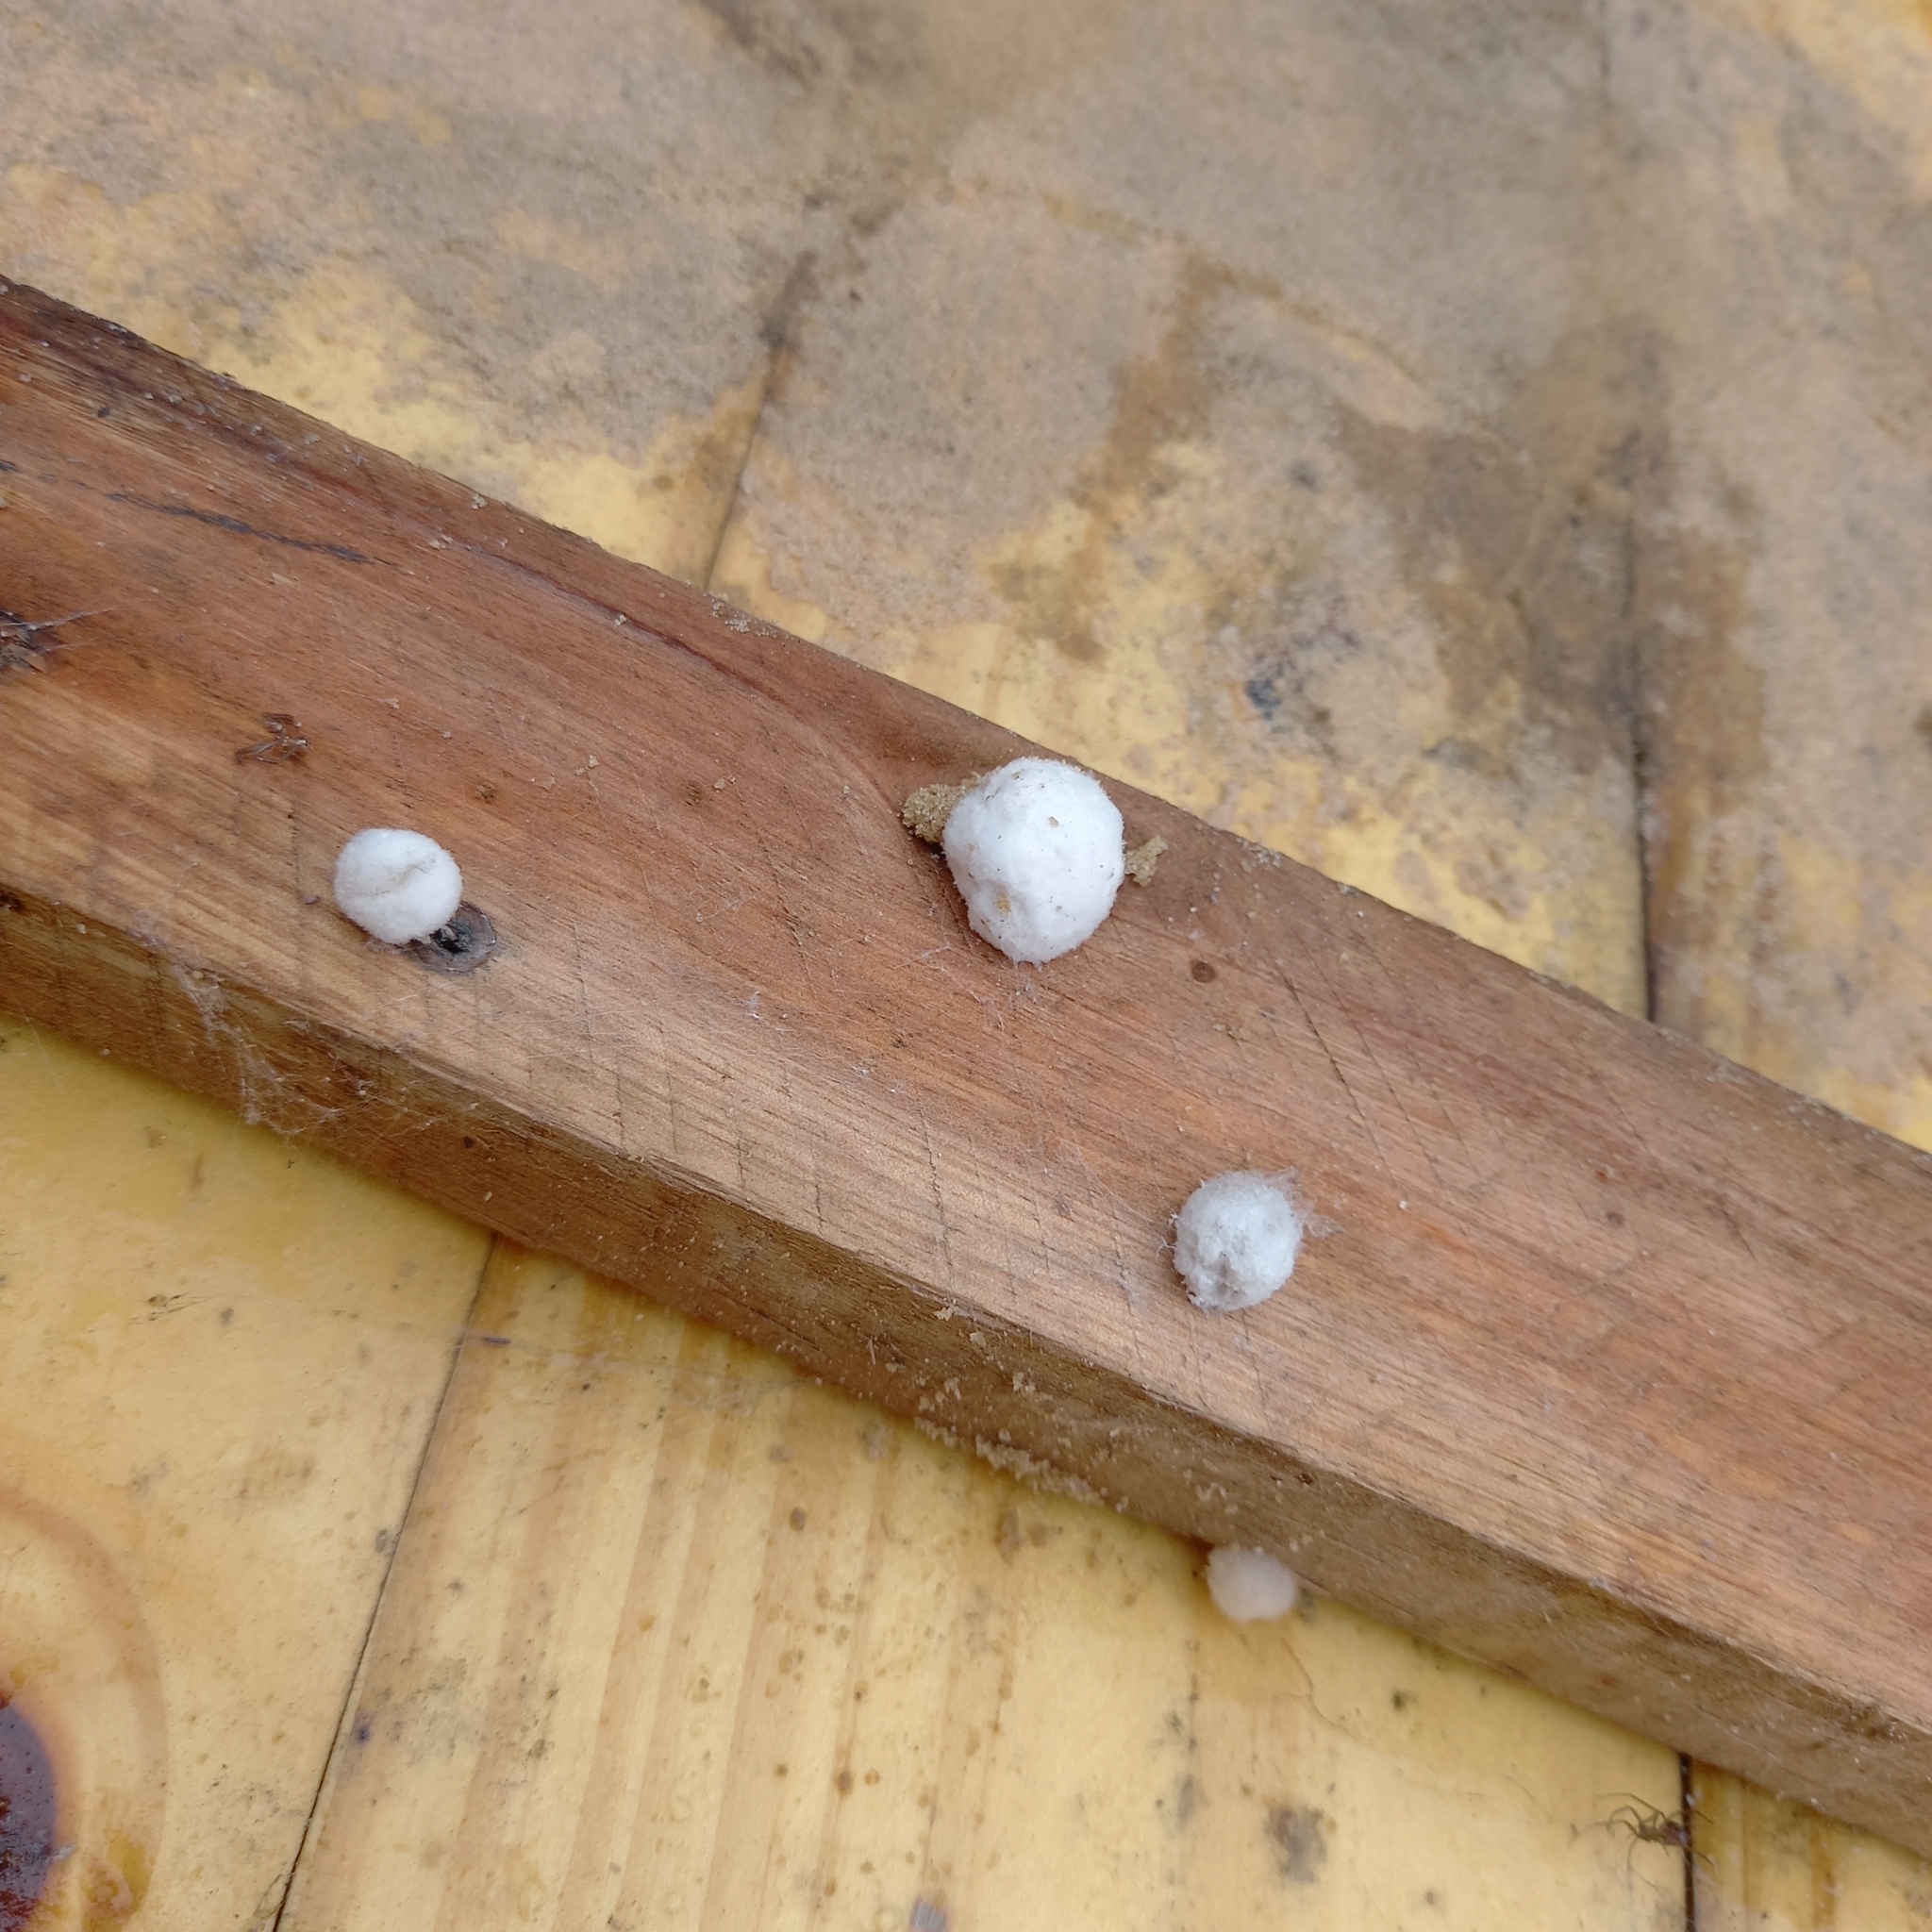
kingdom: Animalia
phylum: Arthropoda
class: Arachnida
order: Araneae
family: Theridiidae
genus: Steatoda
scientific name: Steatoda grossa
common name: False black widow
